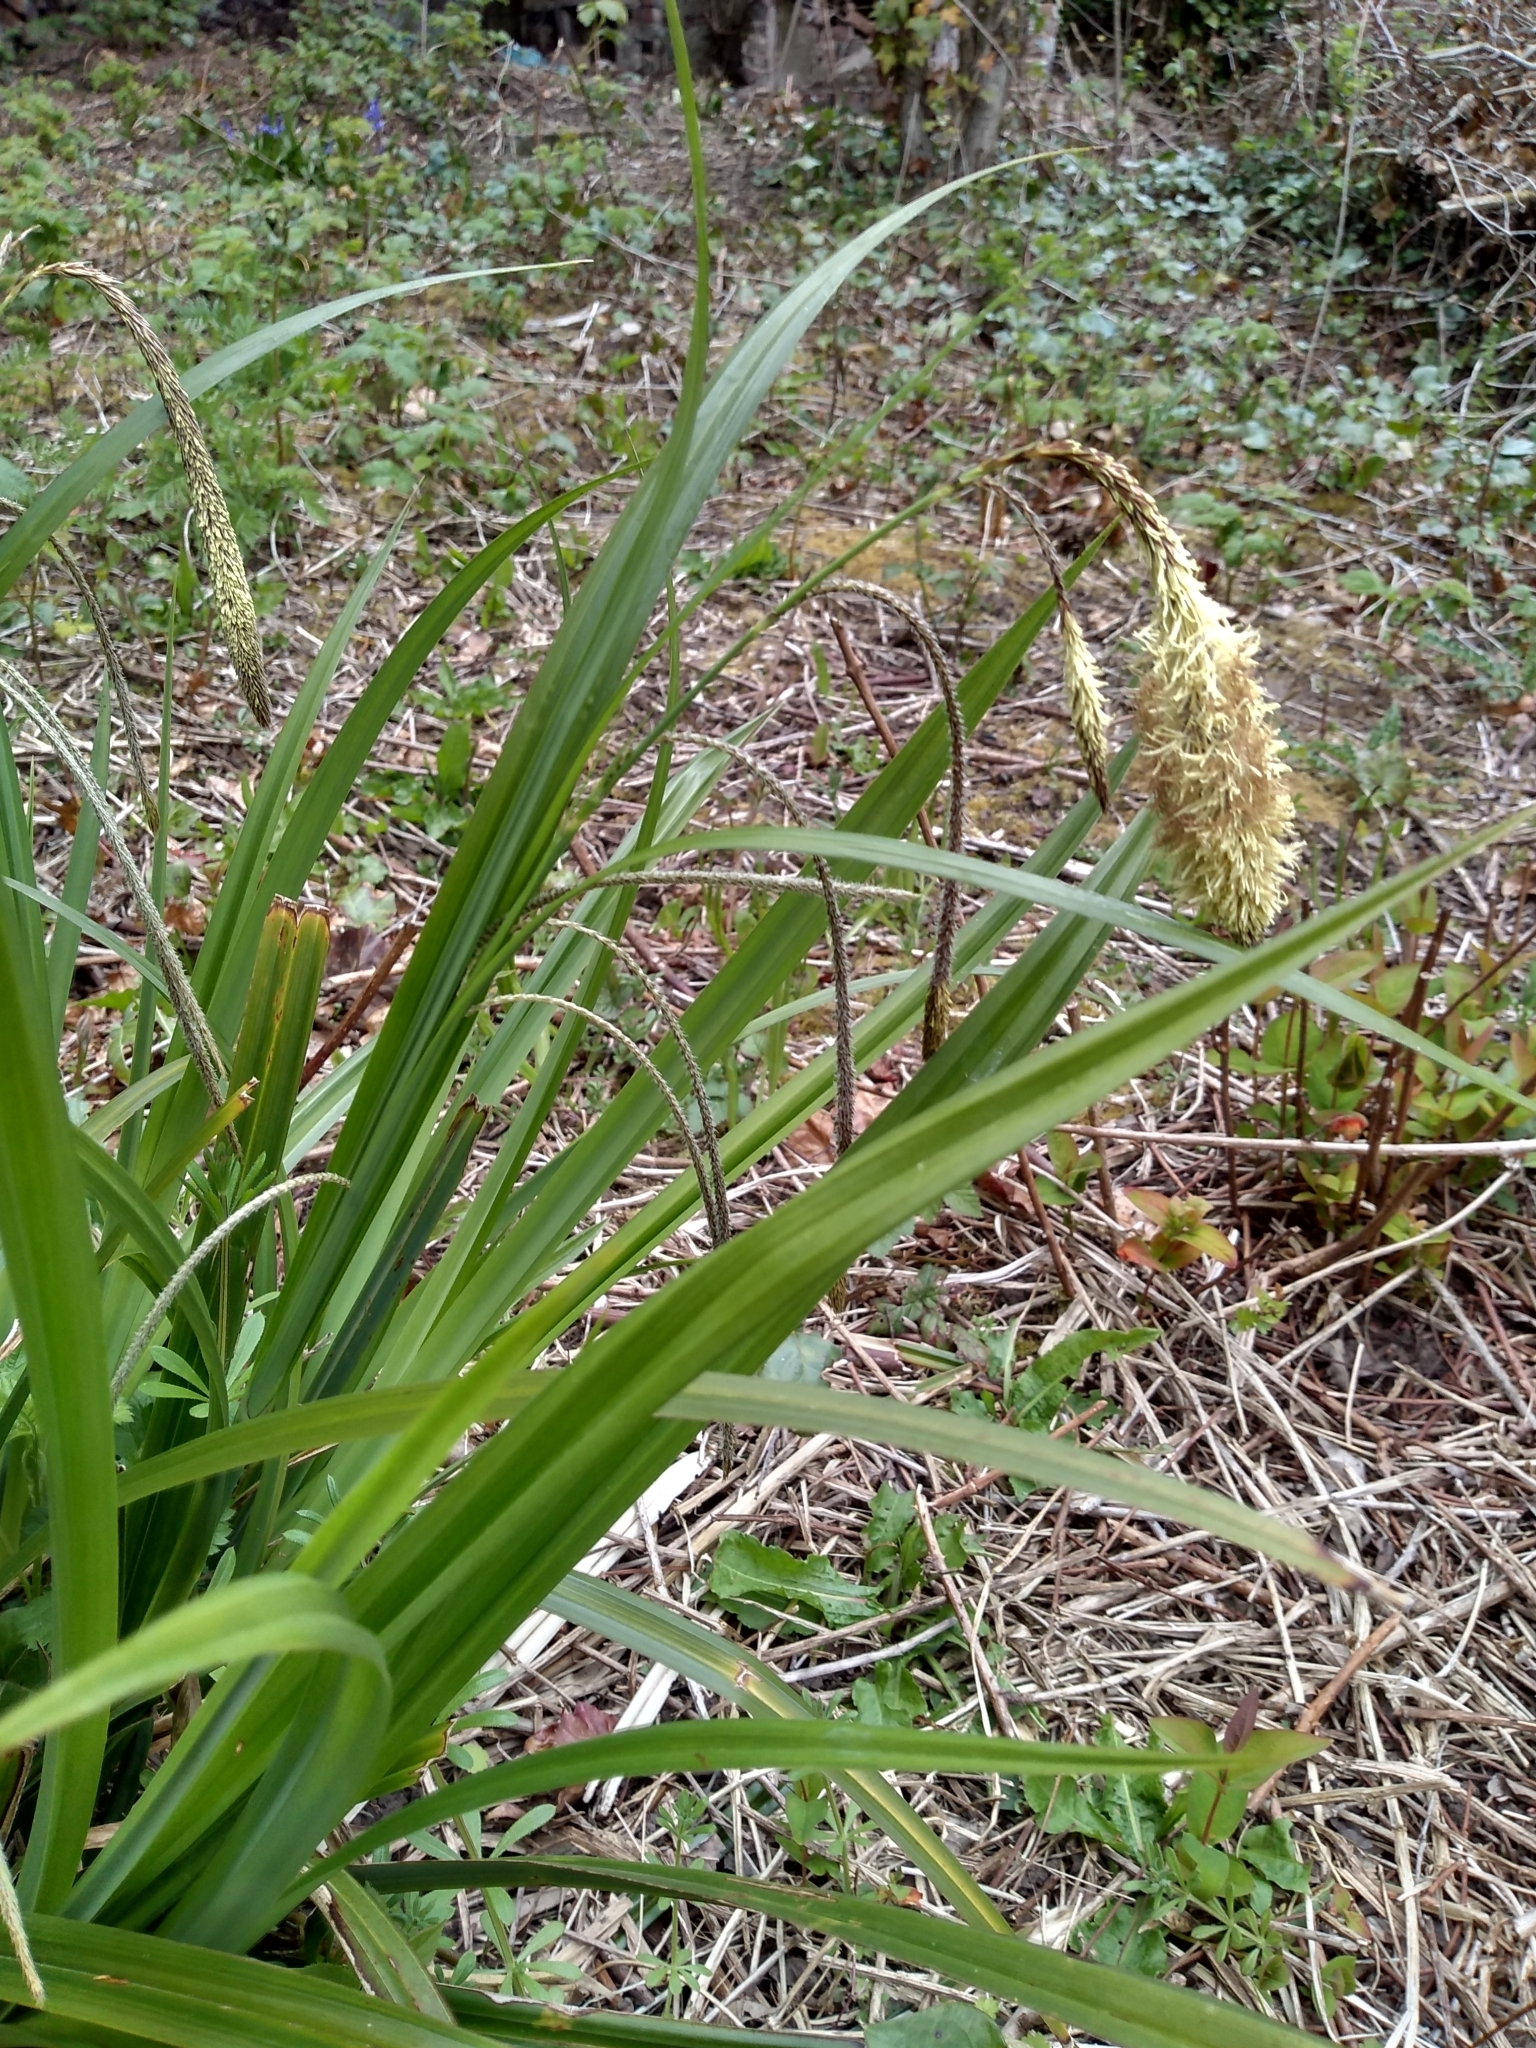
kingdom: Plantae
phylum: Tracheophyta
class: Liliopsida
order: Poales
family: Cyperaceae
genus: Carex
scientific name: Carex pendula
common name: Pendulous sedge
